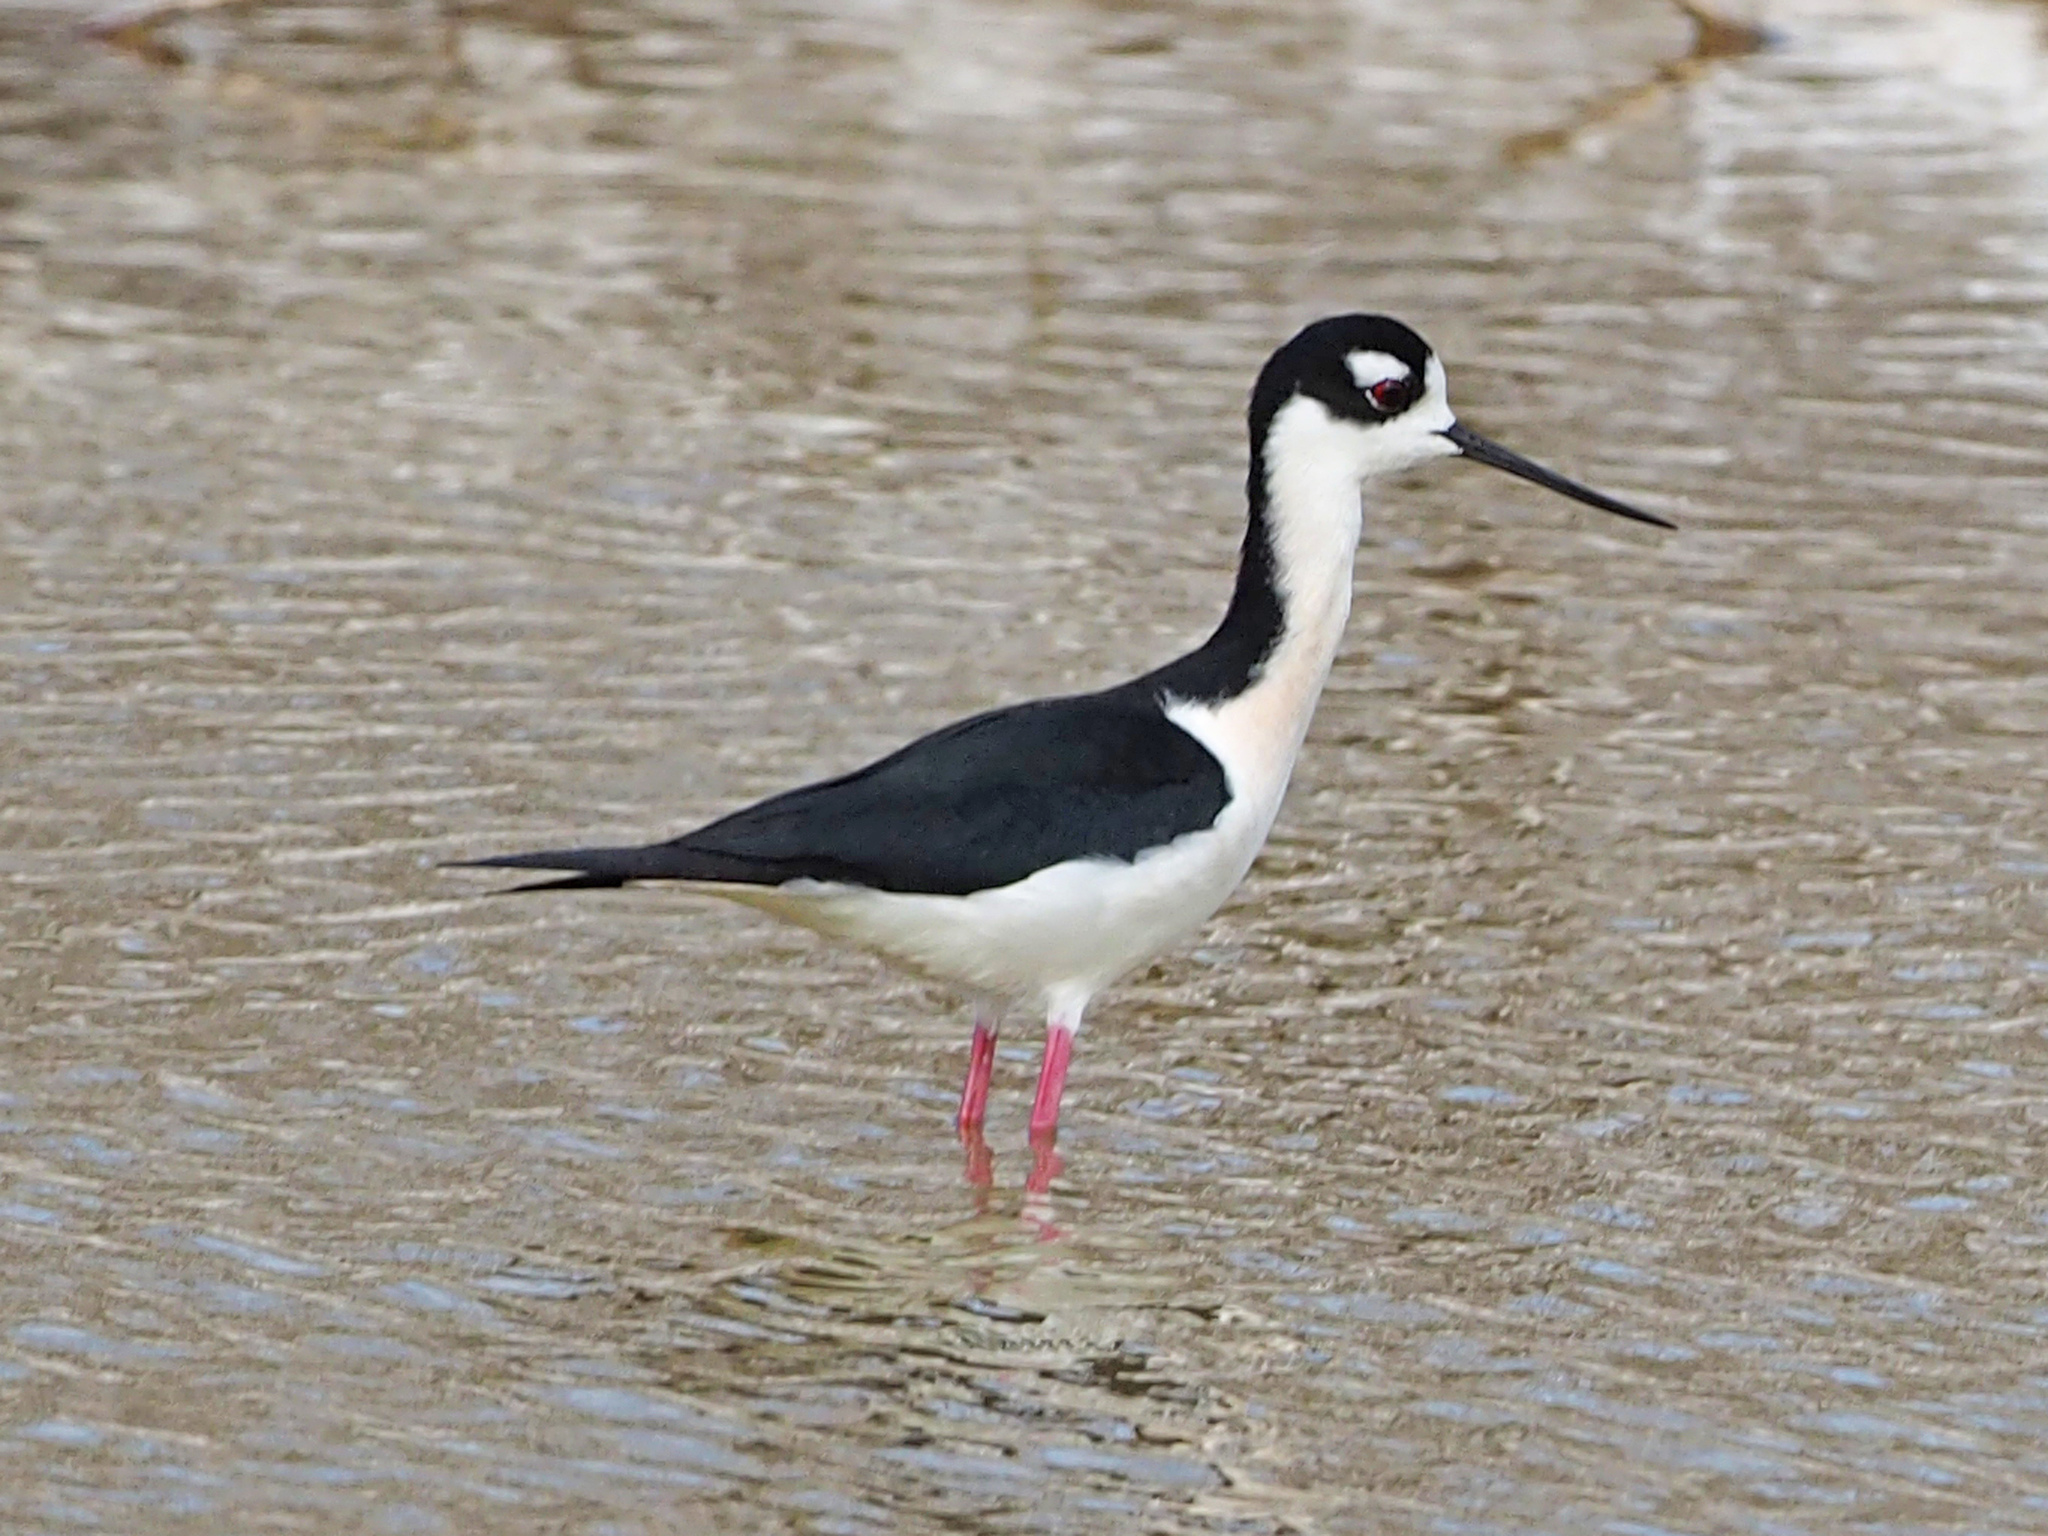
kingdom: Animalia
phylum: Chordata
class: Aves
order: Charadriiformes
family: Recurvirostridae
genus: Himantopus
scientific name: Himantopus mexicanus
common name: Black-necked stilt
